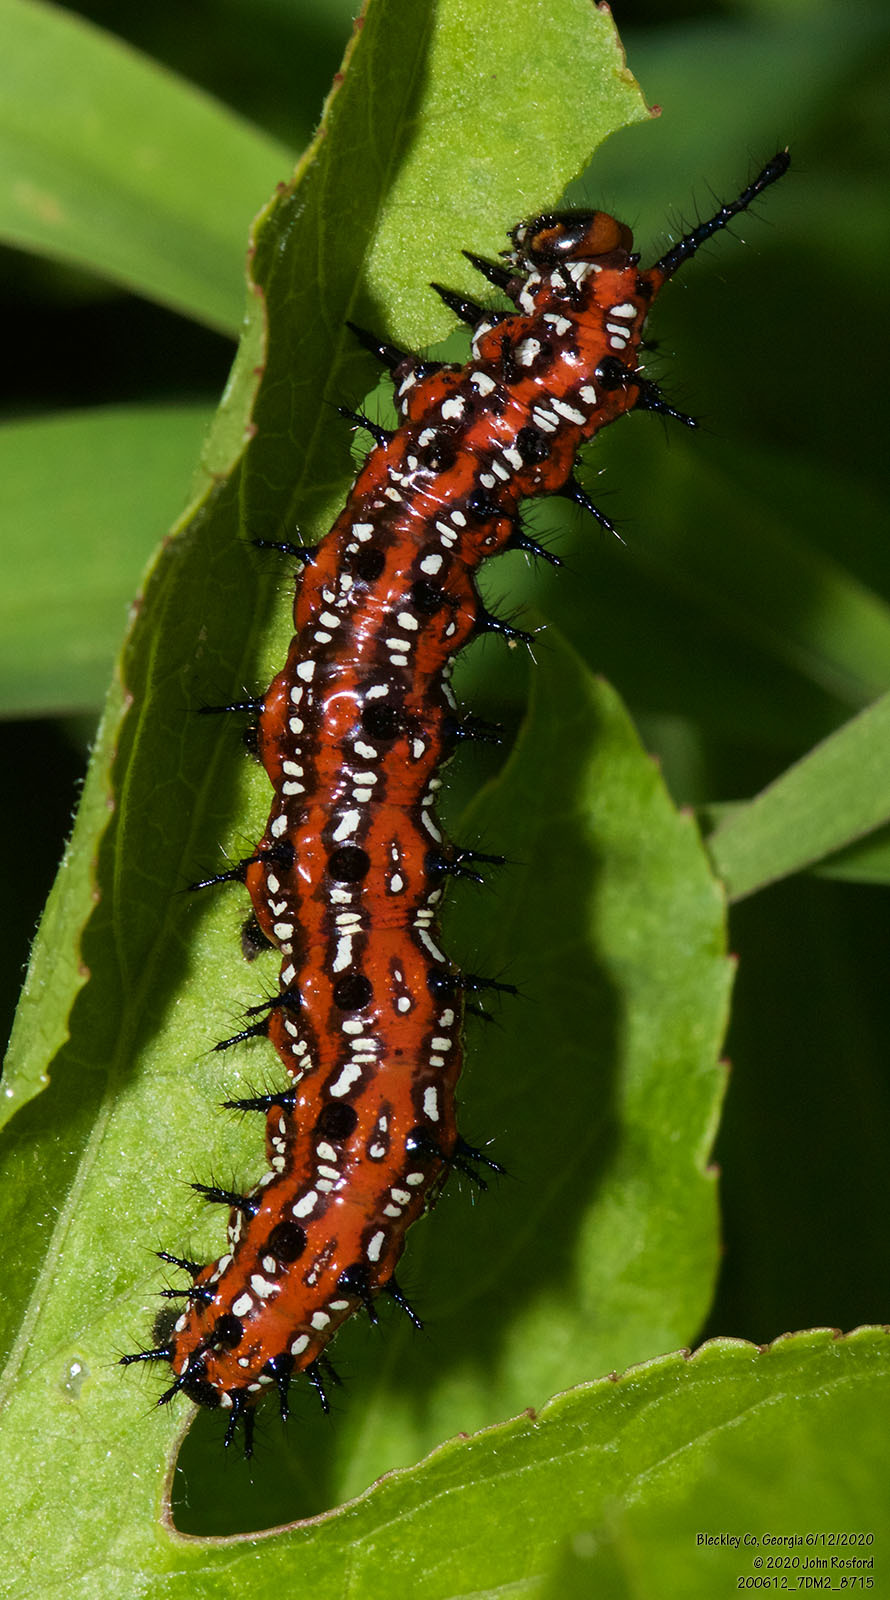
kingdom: Animalia
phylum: Arthropoda
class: Insecta
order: Lepidoptera
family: Nymphalidae
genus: Euptoieta
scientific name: Euptoieta claudia
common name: Variegated fritillary
